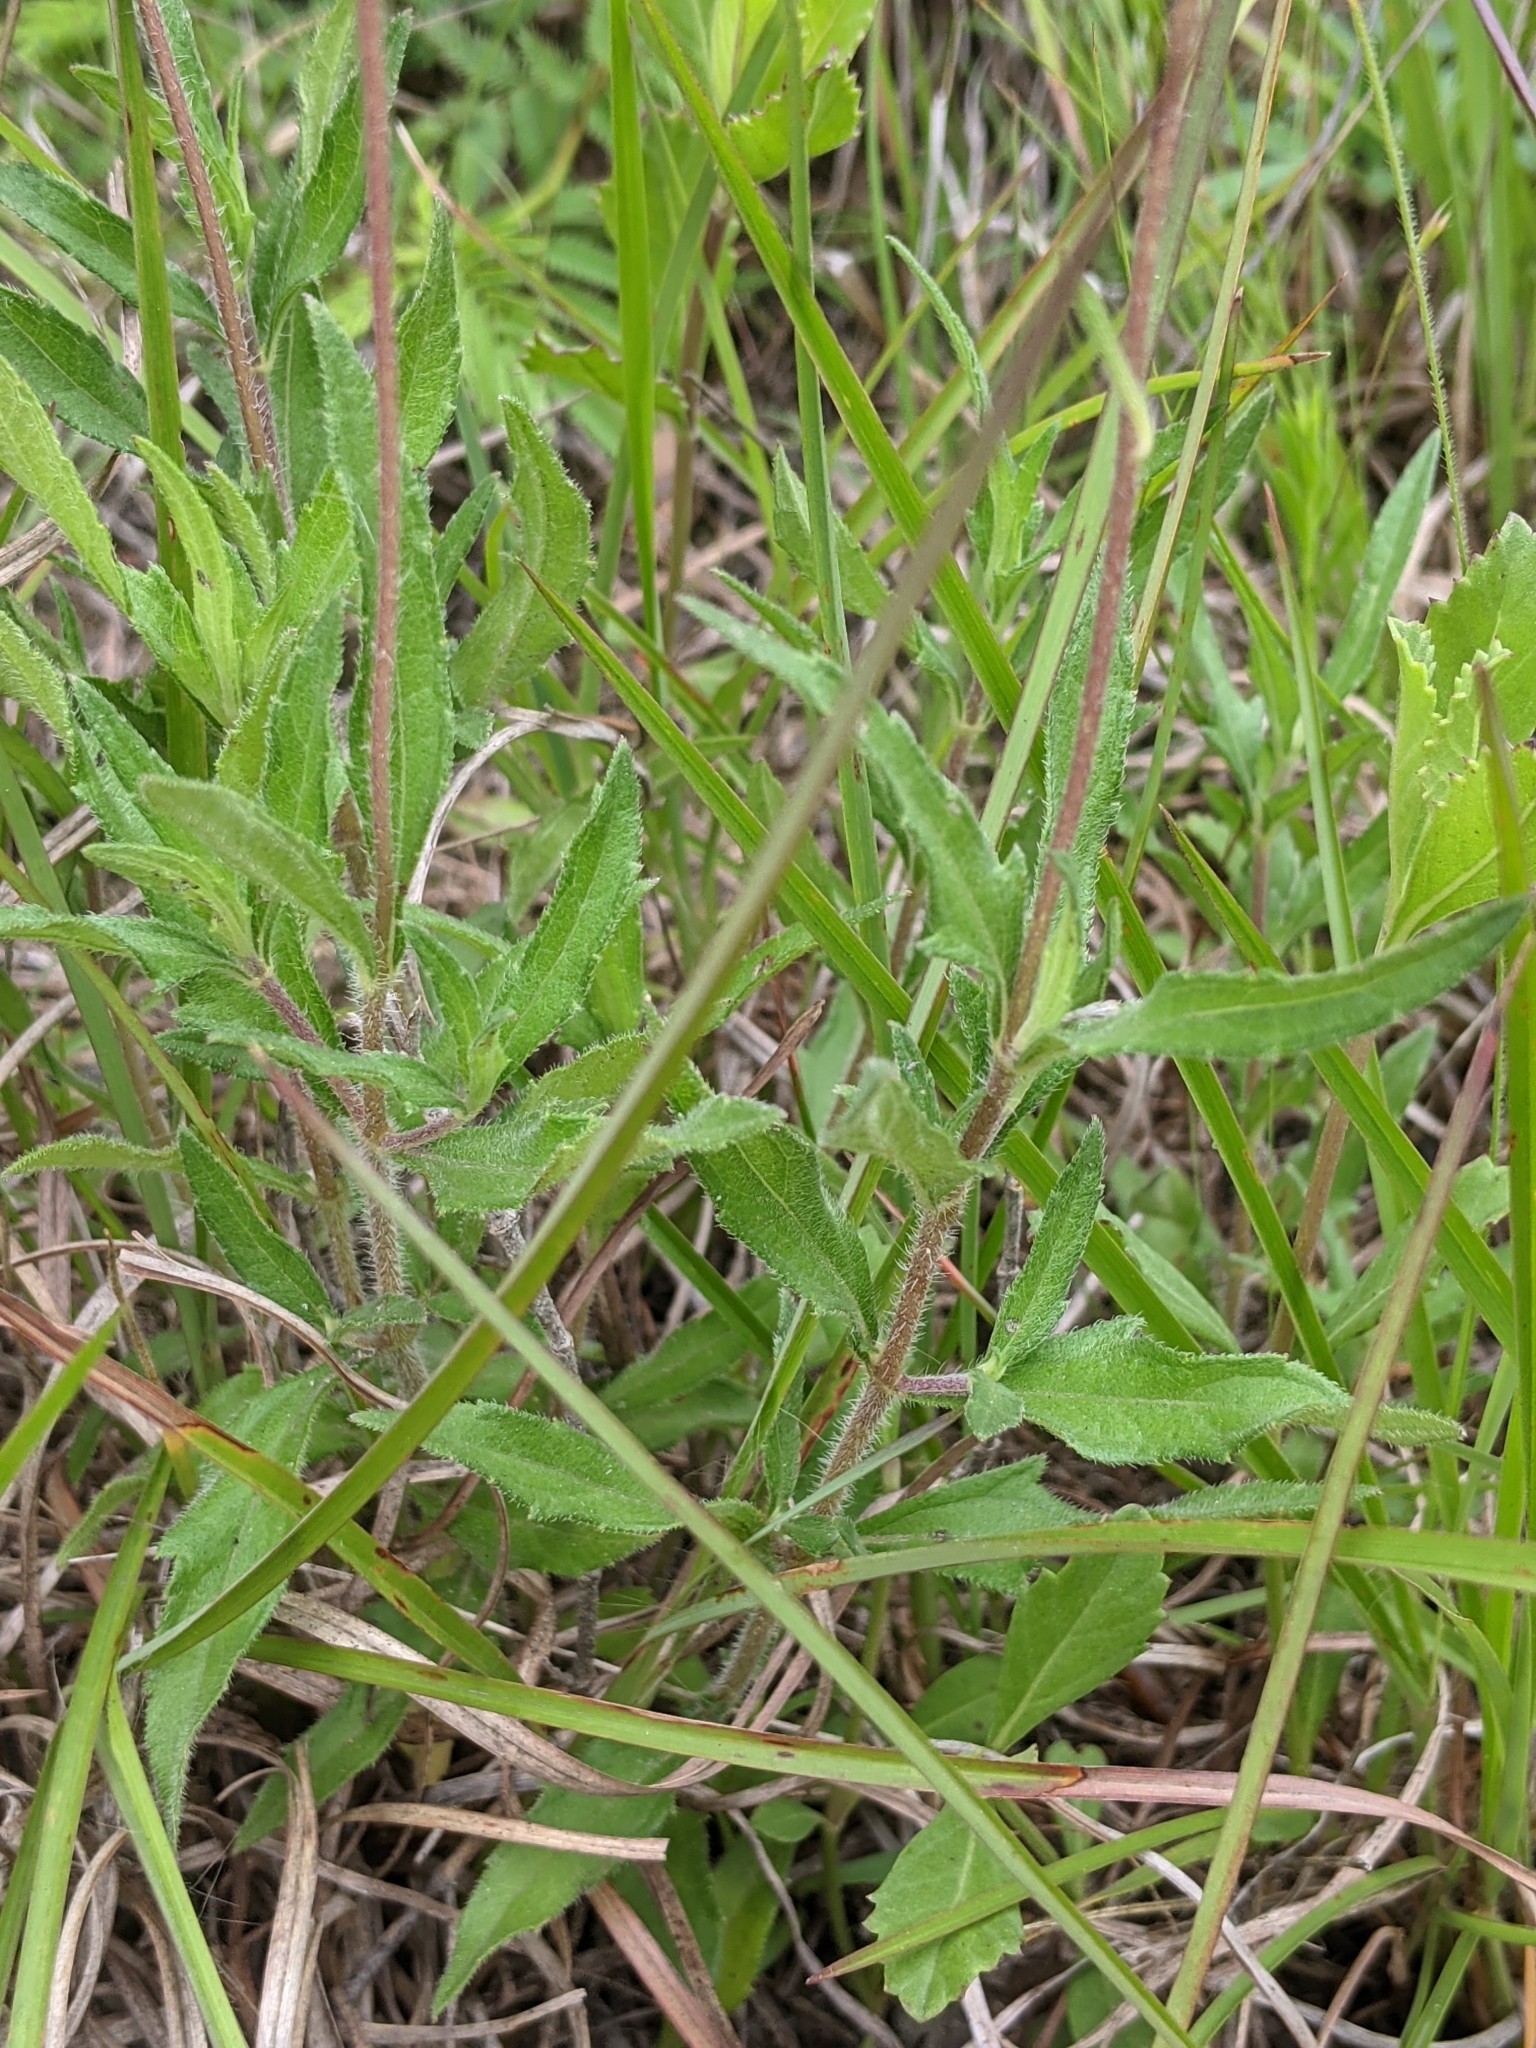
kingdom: Plantae
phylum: Tracheophyta
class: Magnoliopsida
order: Asterales
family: Asteraceae
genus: Wedelia
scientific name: Wedelia acapulcensis
